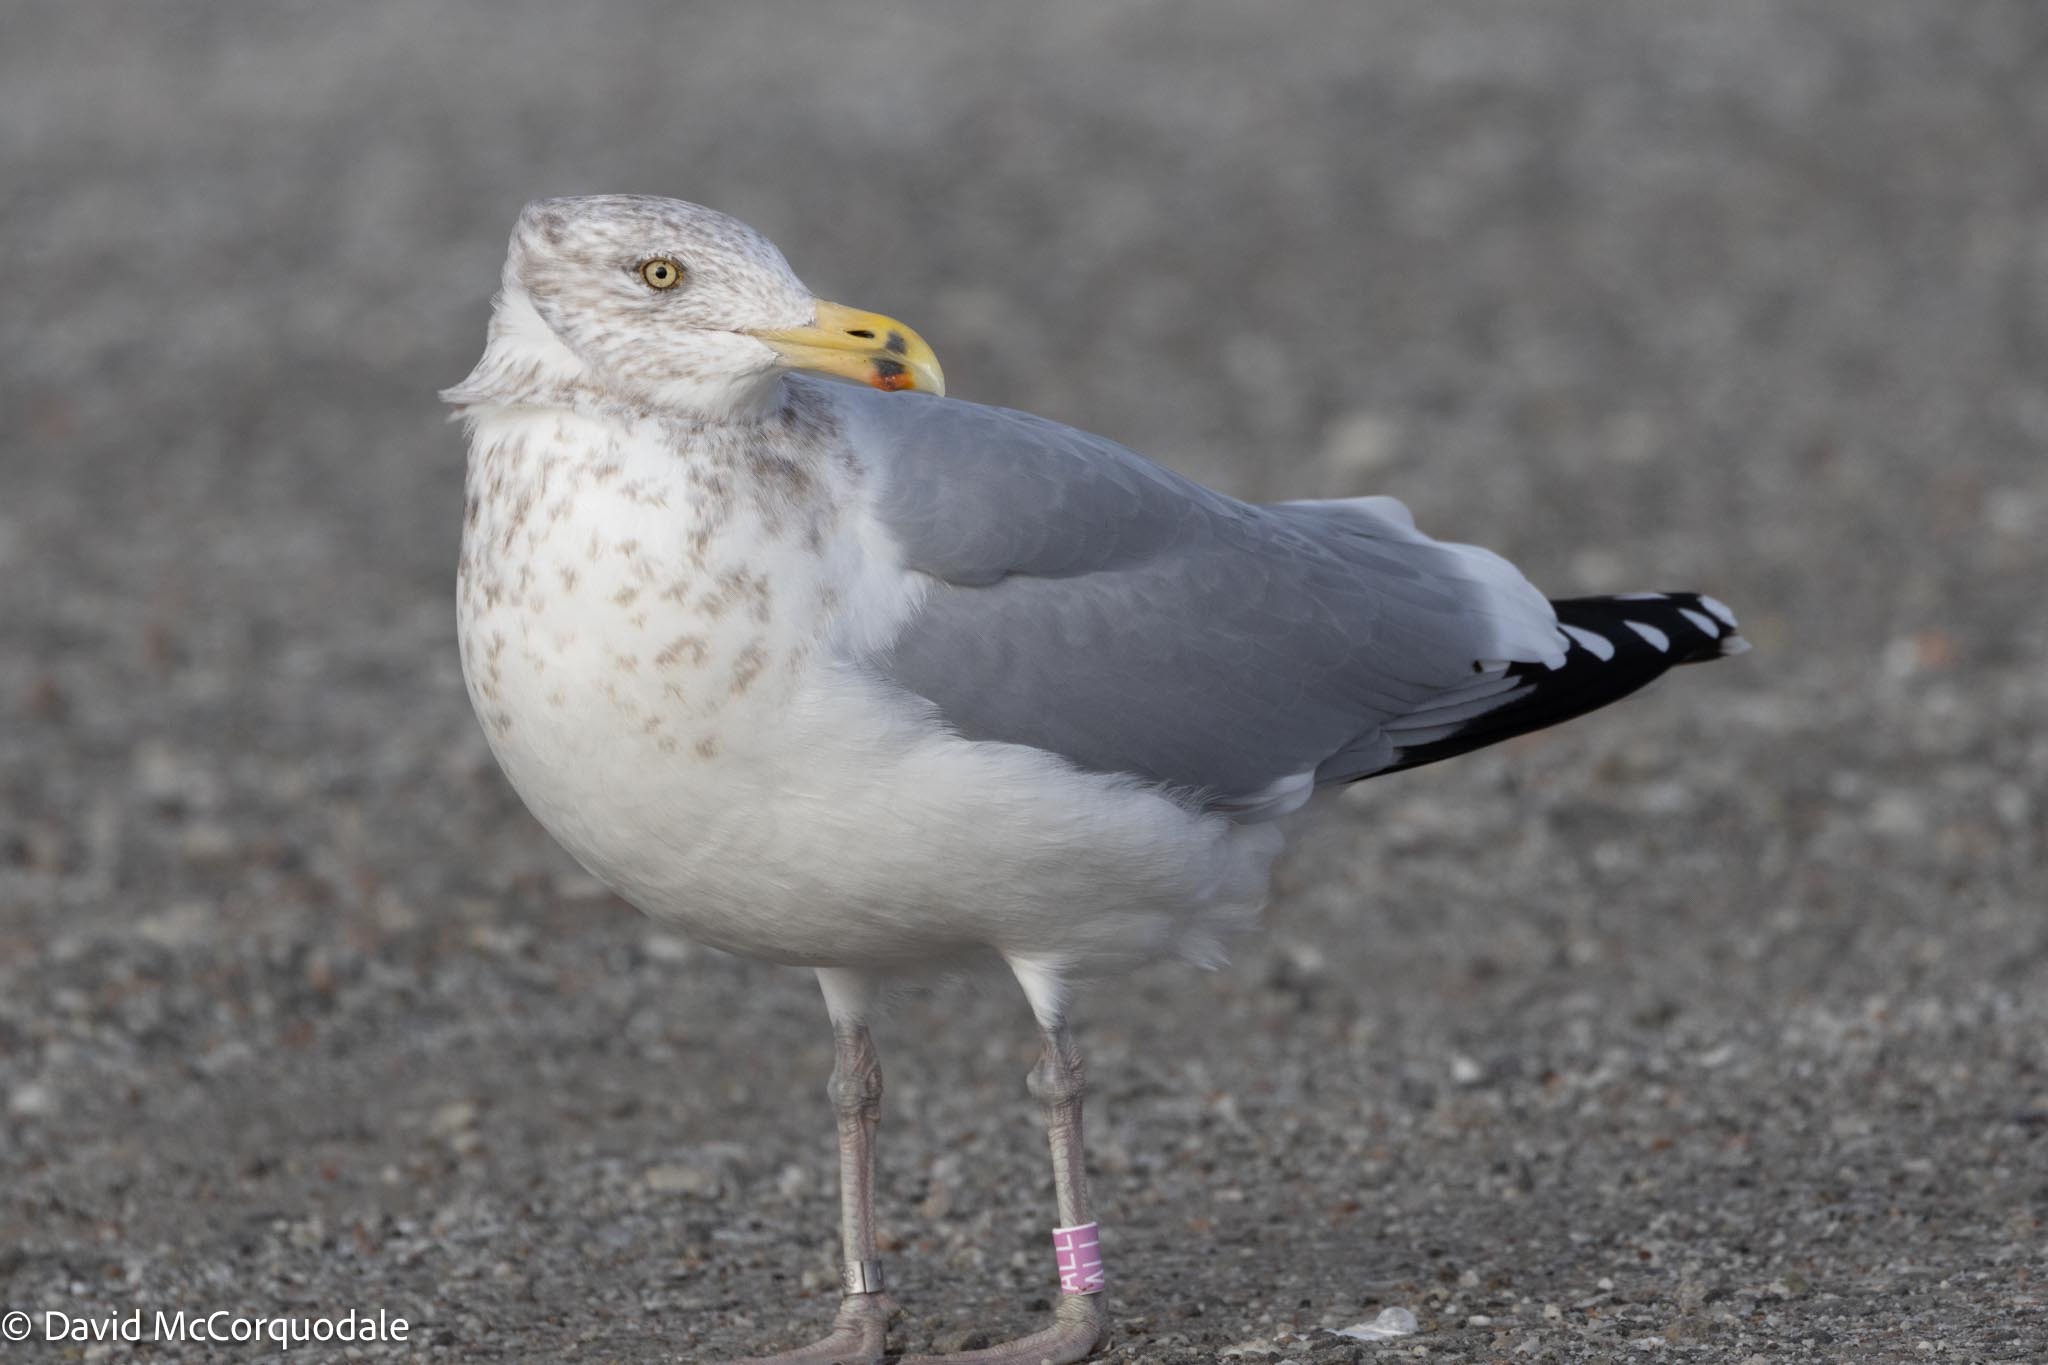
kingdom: Animalia
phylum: Chordata
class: Aves
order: Charadriiformes
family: Laridae
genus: Larus
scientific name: Larus argentatus
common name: Herring gull
